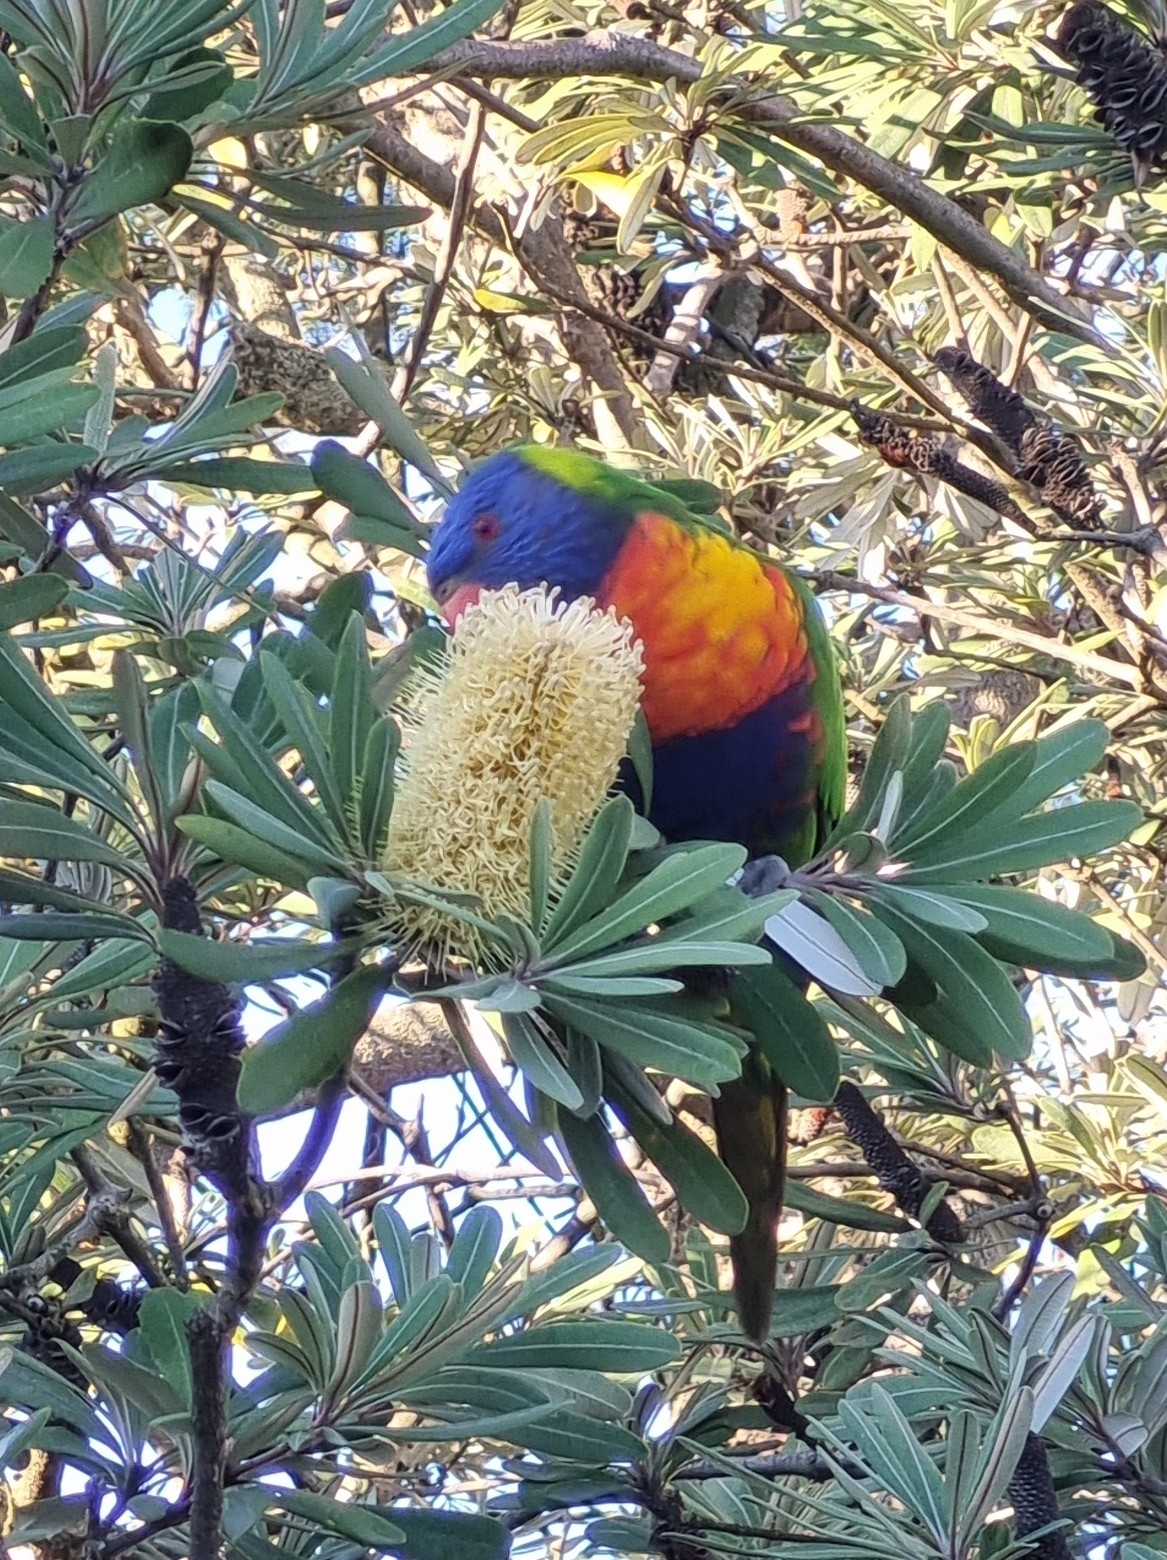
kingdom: Animalia
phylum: Chordata
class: Aves
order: Psittaciformes
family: Psittacidae
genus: Trichoglossus
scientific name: Trichoglossus haematodus
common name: Coconut lorikeet
